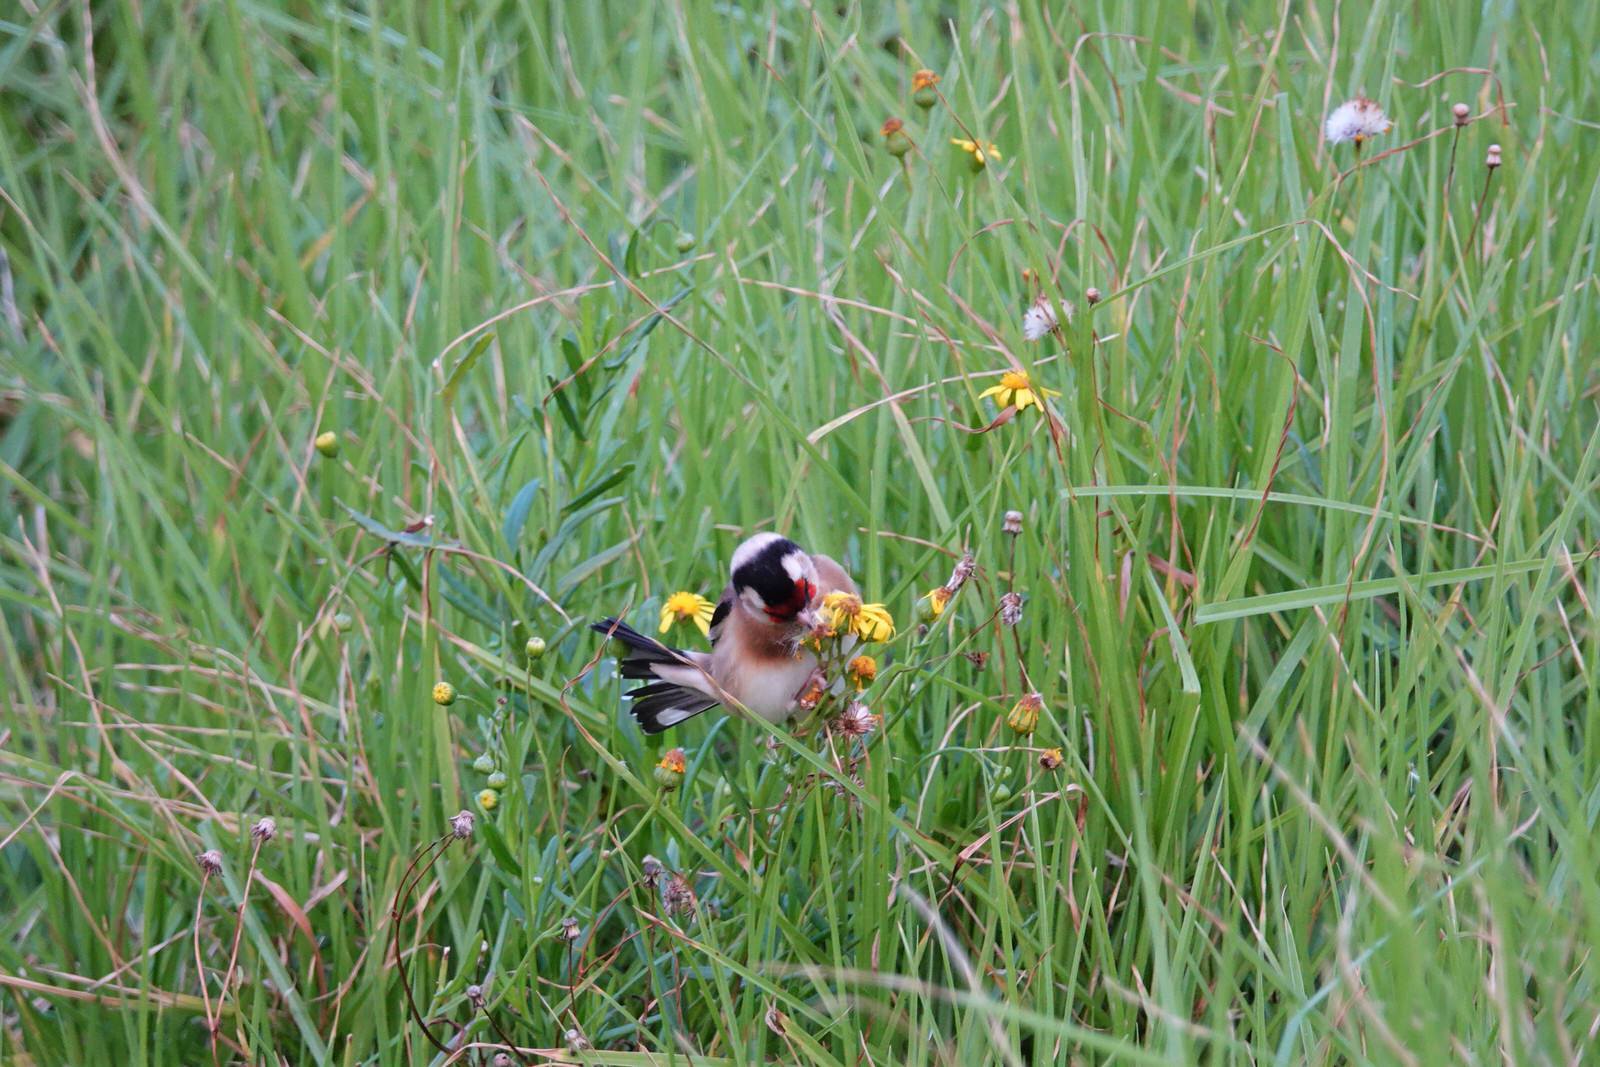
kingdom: Animalia
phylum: Chordata
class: Aves
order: Passeriformes
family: Fringillidae
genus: Carduelis
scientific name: Carduelis carduelis
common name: European goldfinch
